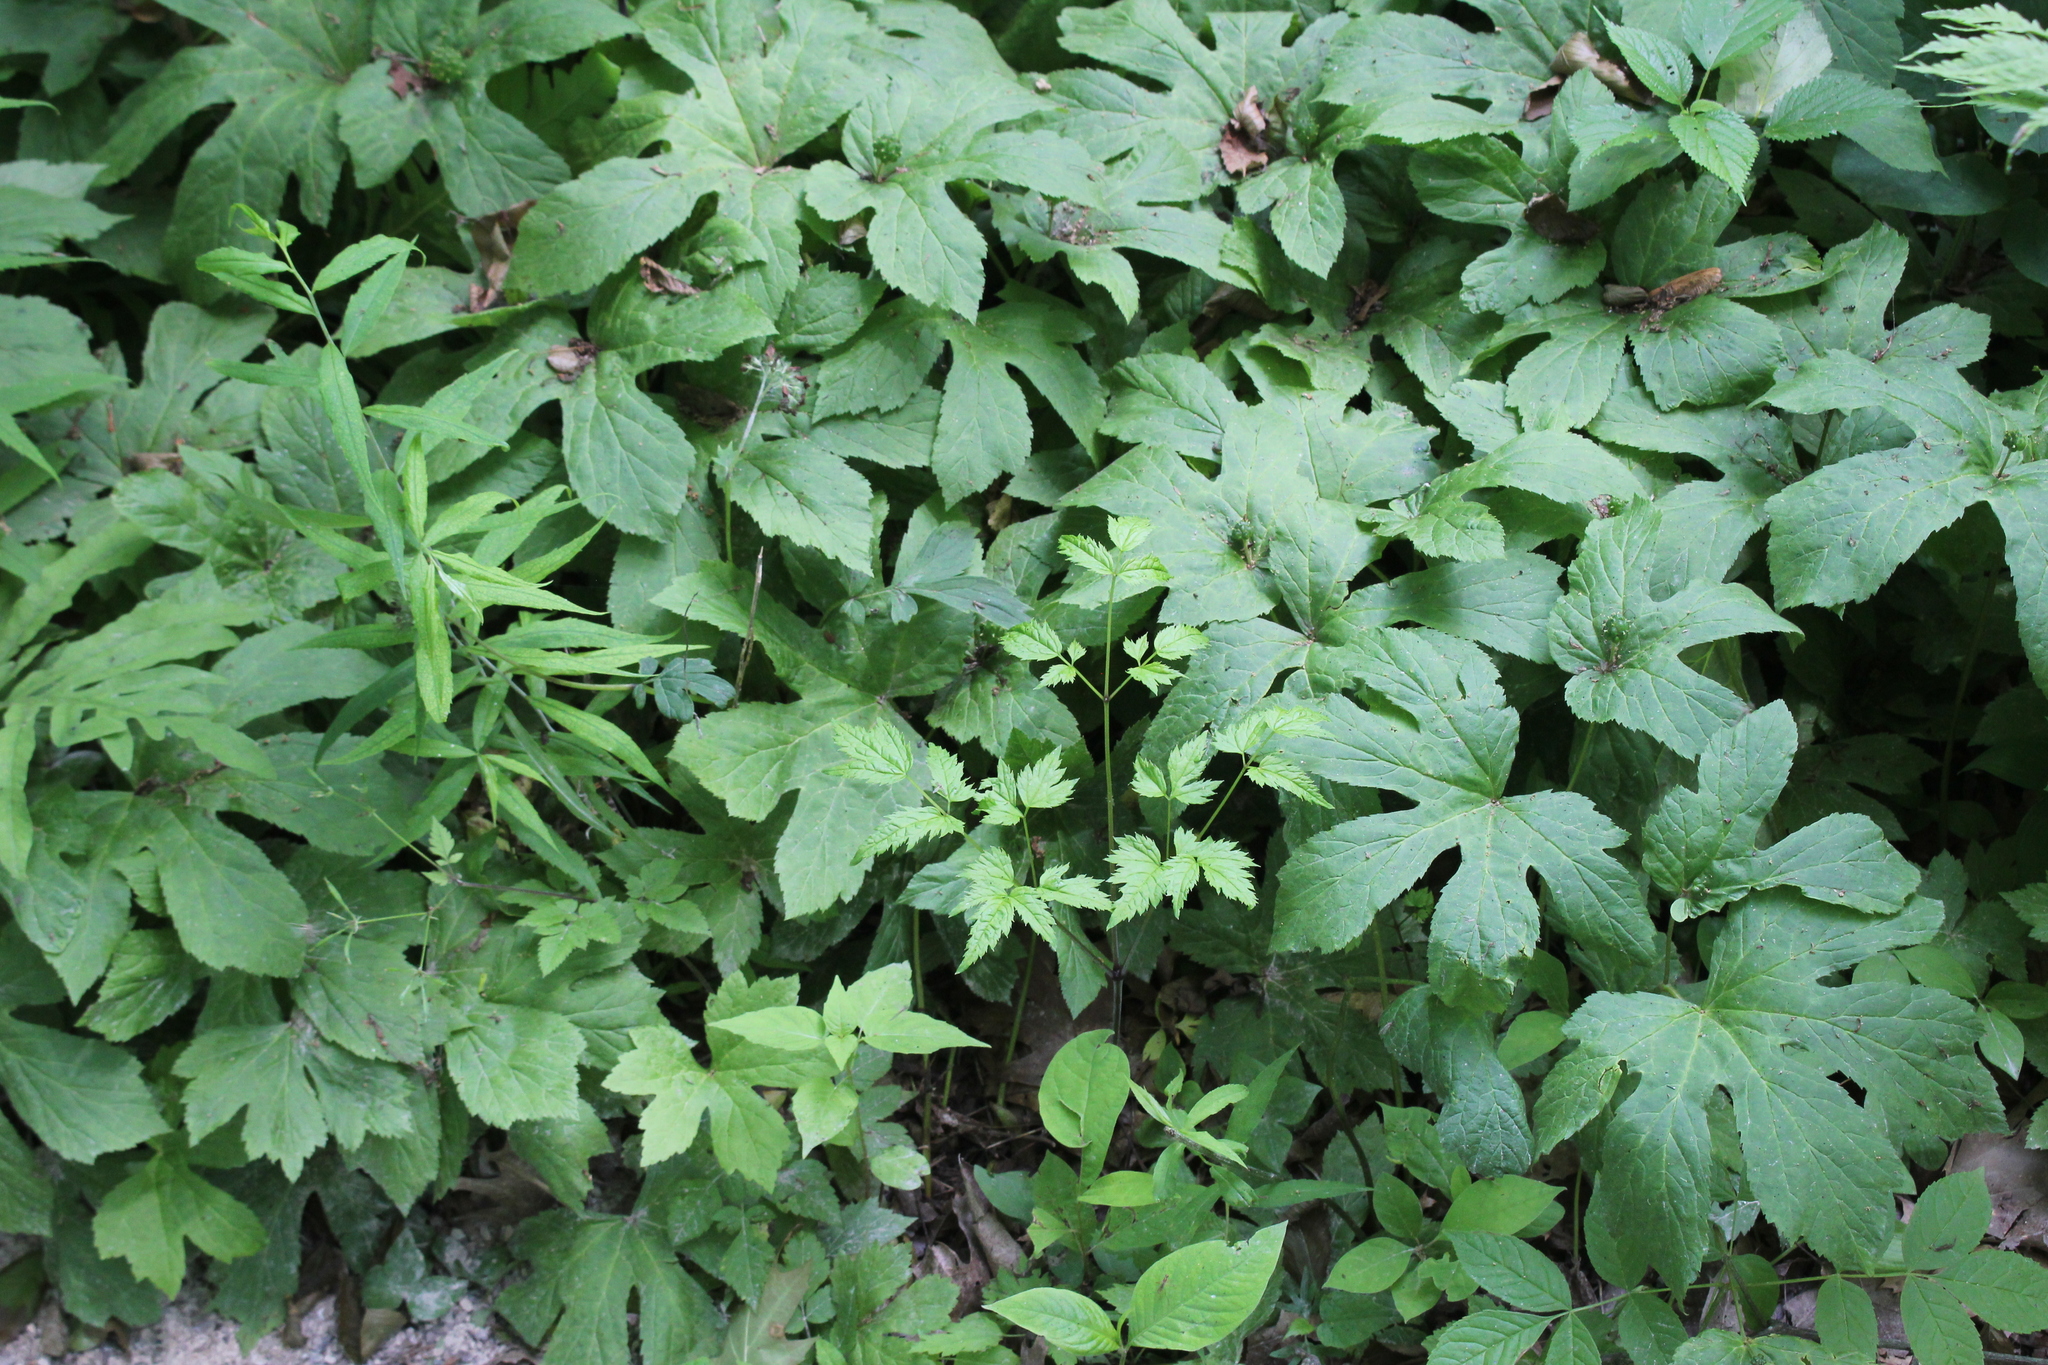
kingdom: Plantae
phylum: Tracheophyta
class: Magnoliopsida
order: Ranunculales
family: Ranunculaceae
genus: Hydrastis
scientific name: Hydrastis canadensis
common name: Goldenseal
